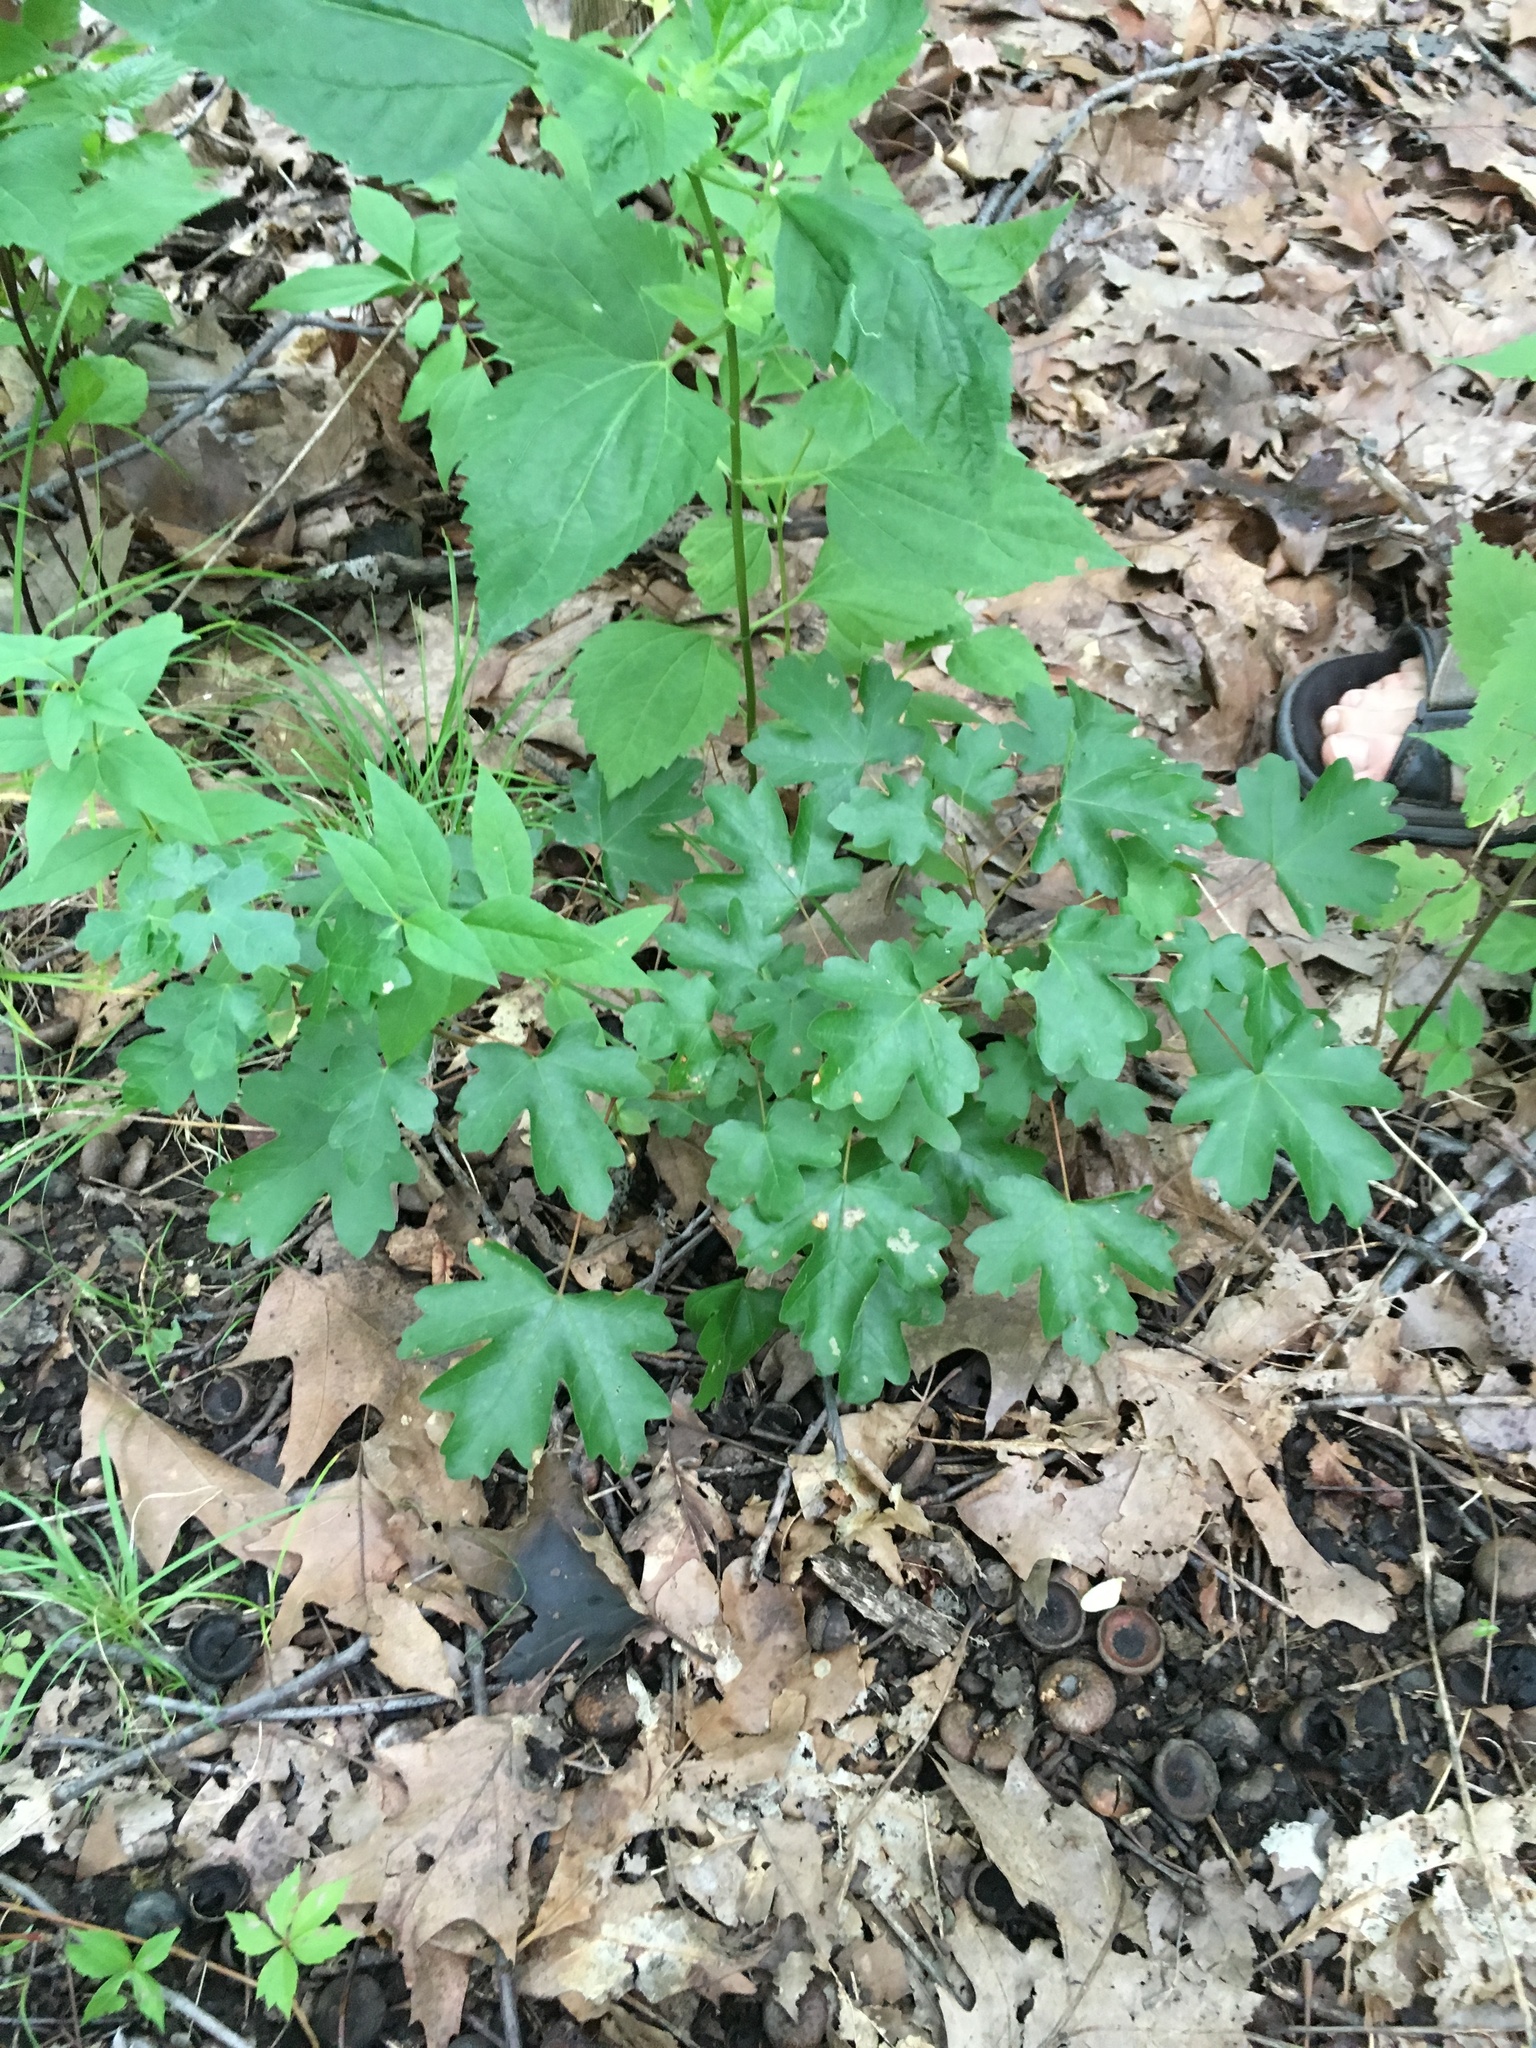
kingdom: Plantae
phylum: Tracheophyta
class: Magnoliopsida
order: Sapindales
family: Sapindaceae
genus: Acer
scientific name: Acer campestre
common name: Field maple
